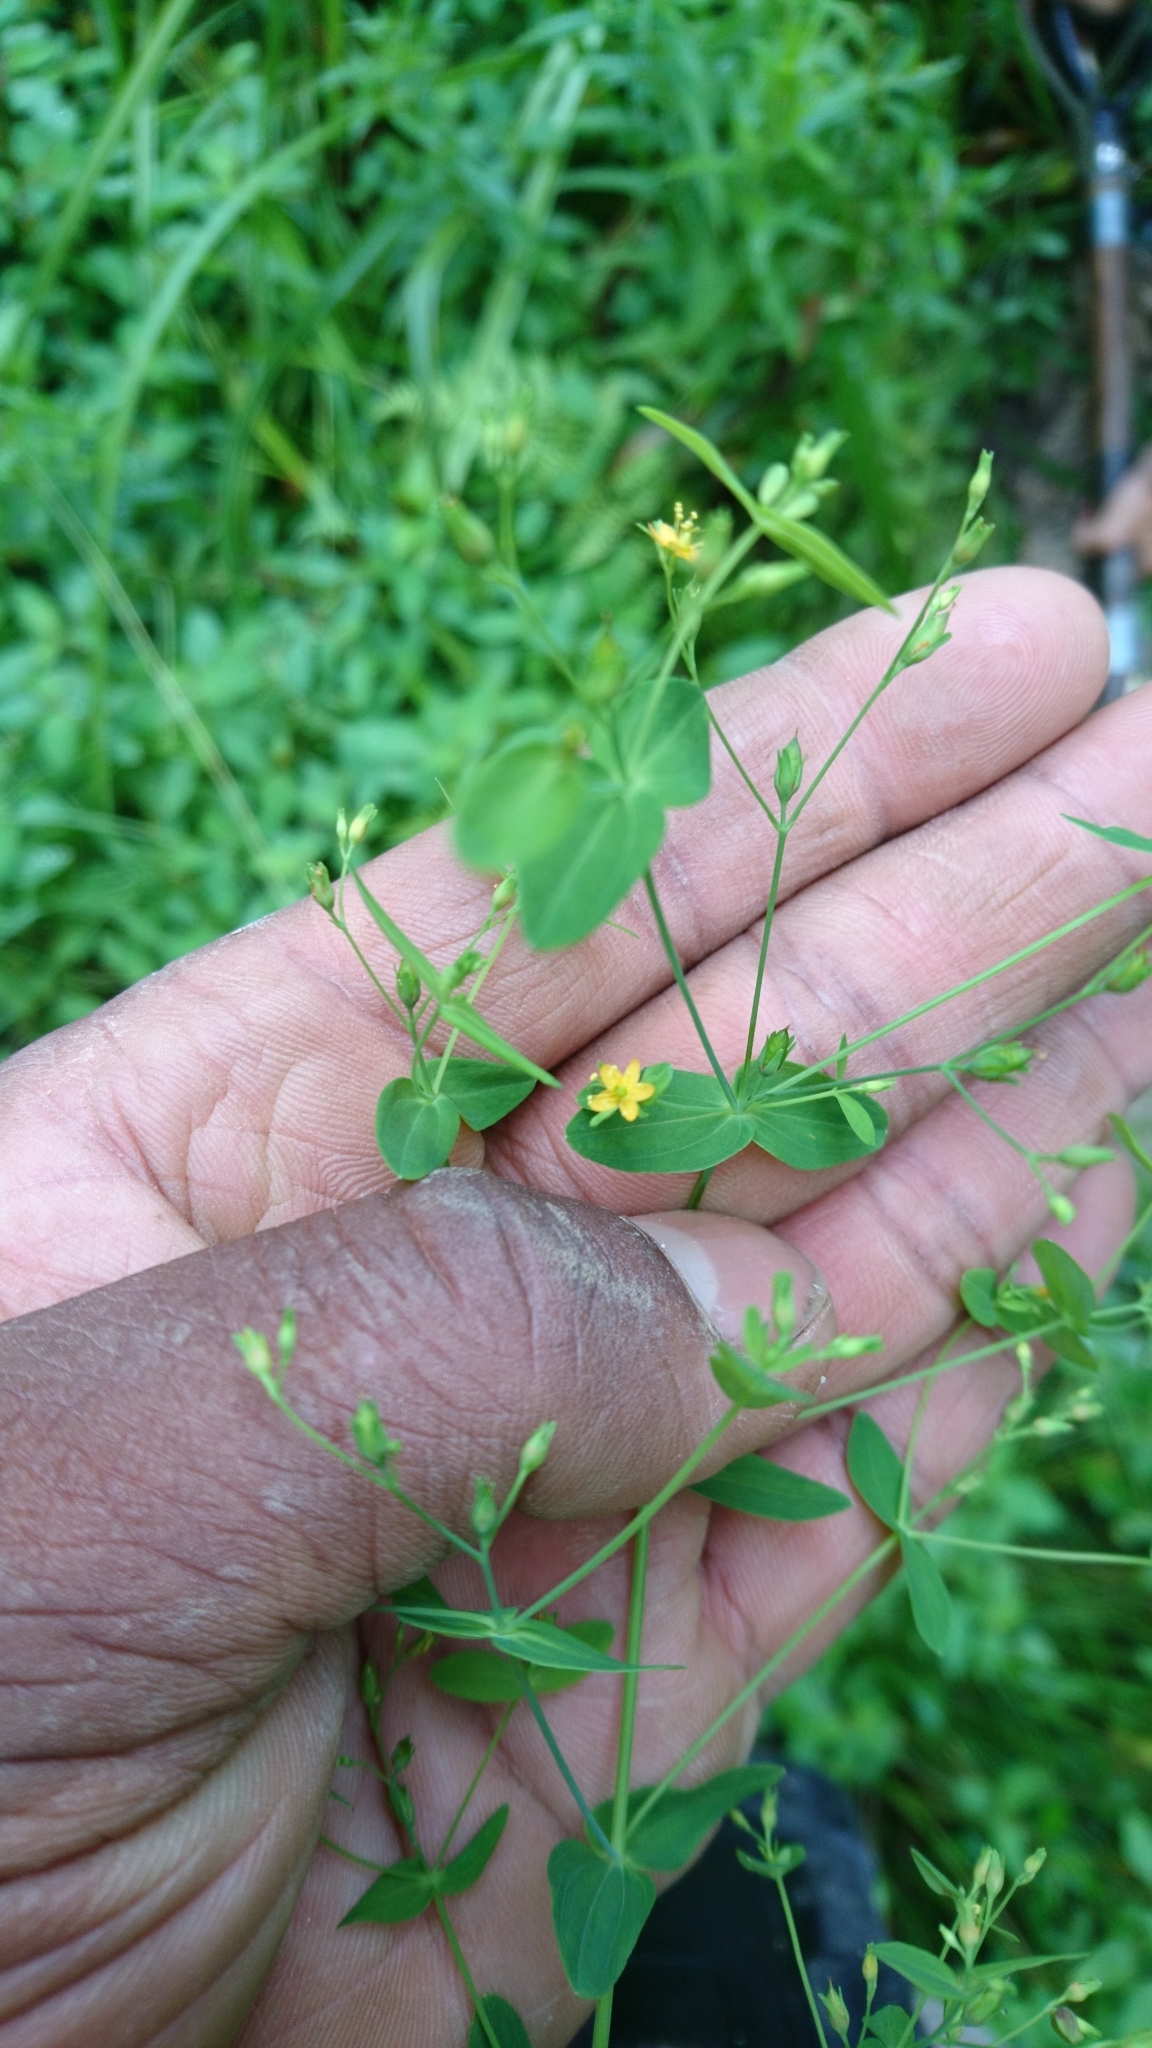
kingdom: Plantae
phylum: Tracheophyta
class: Magnoliopsida
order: Malpighiales
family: Hypericaceae
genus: Hypericum
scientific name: Hypericum mutilum
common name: Dwarf st. john's-wort
